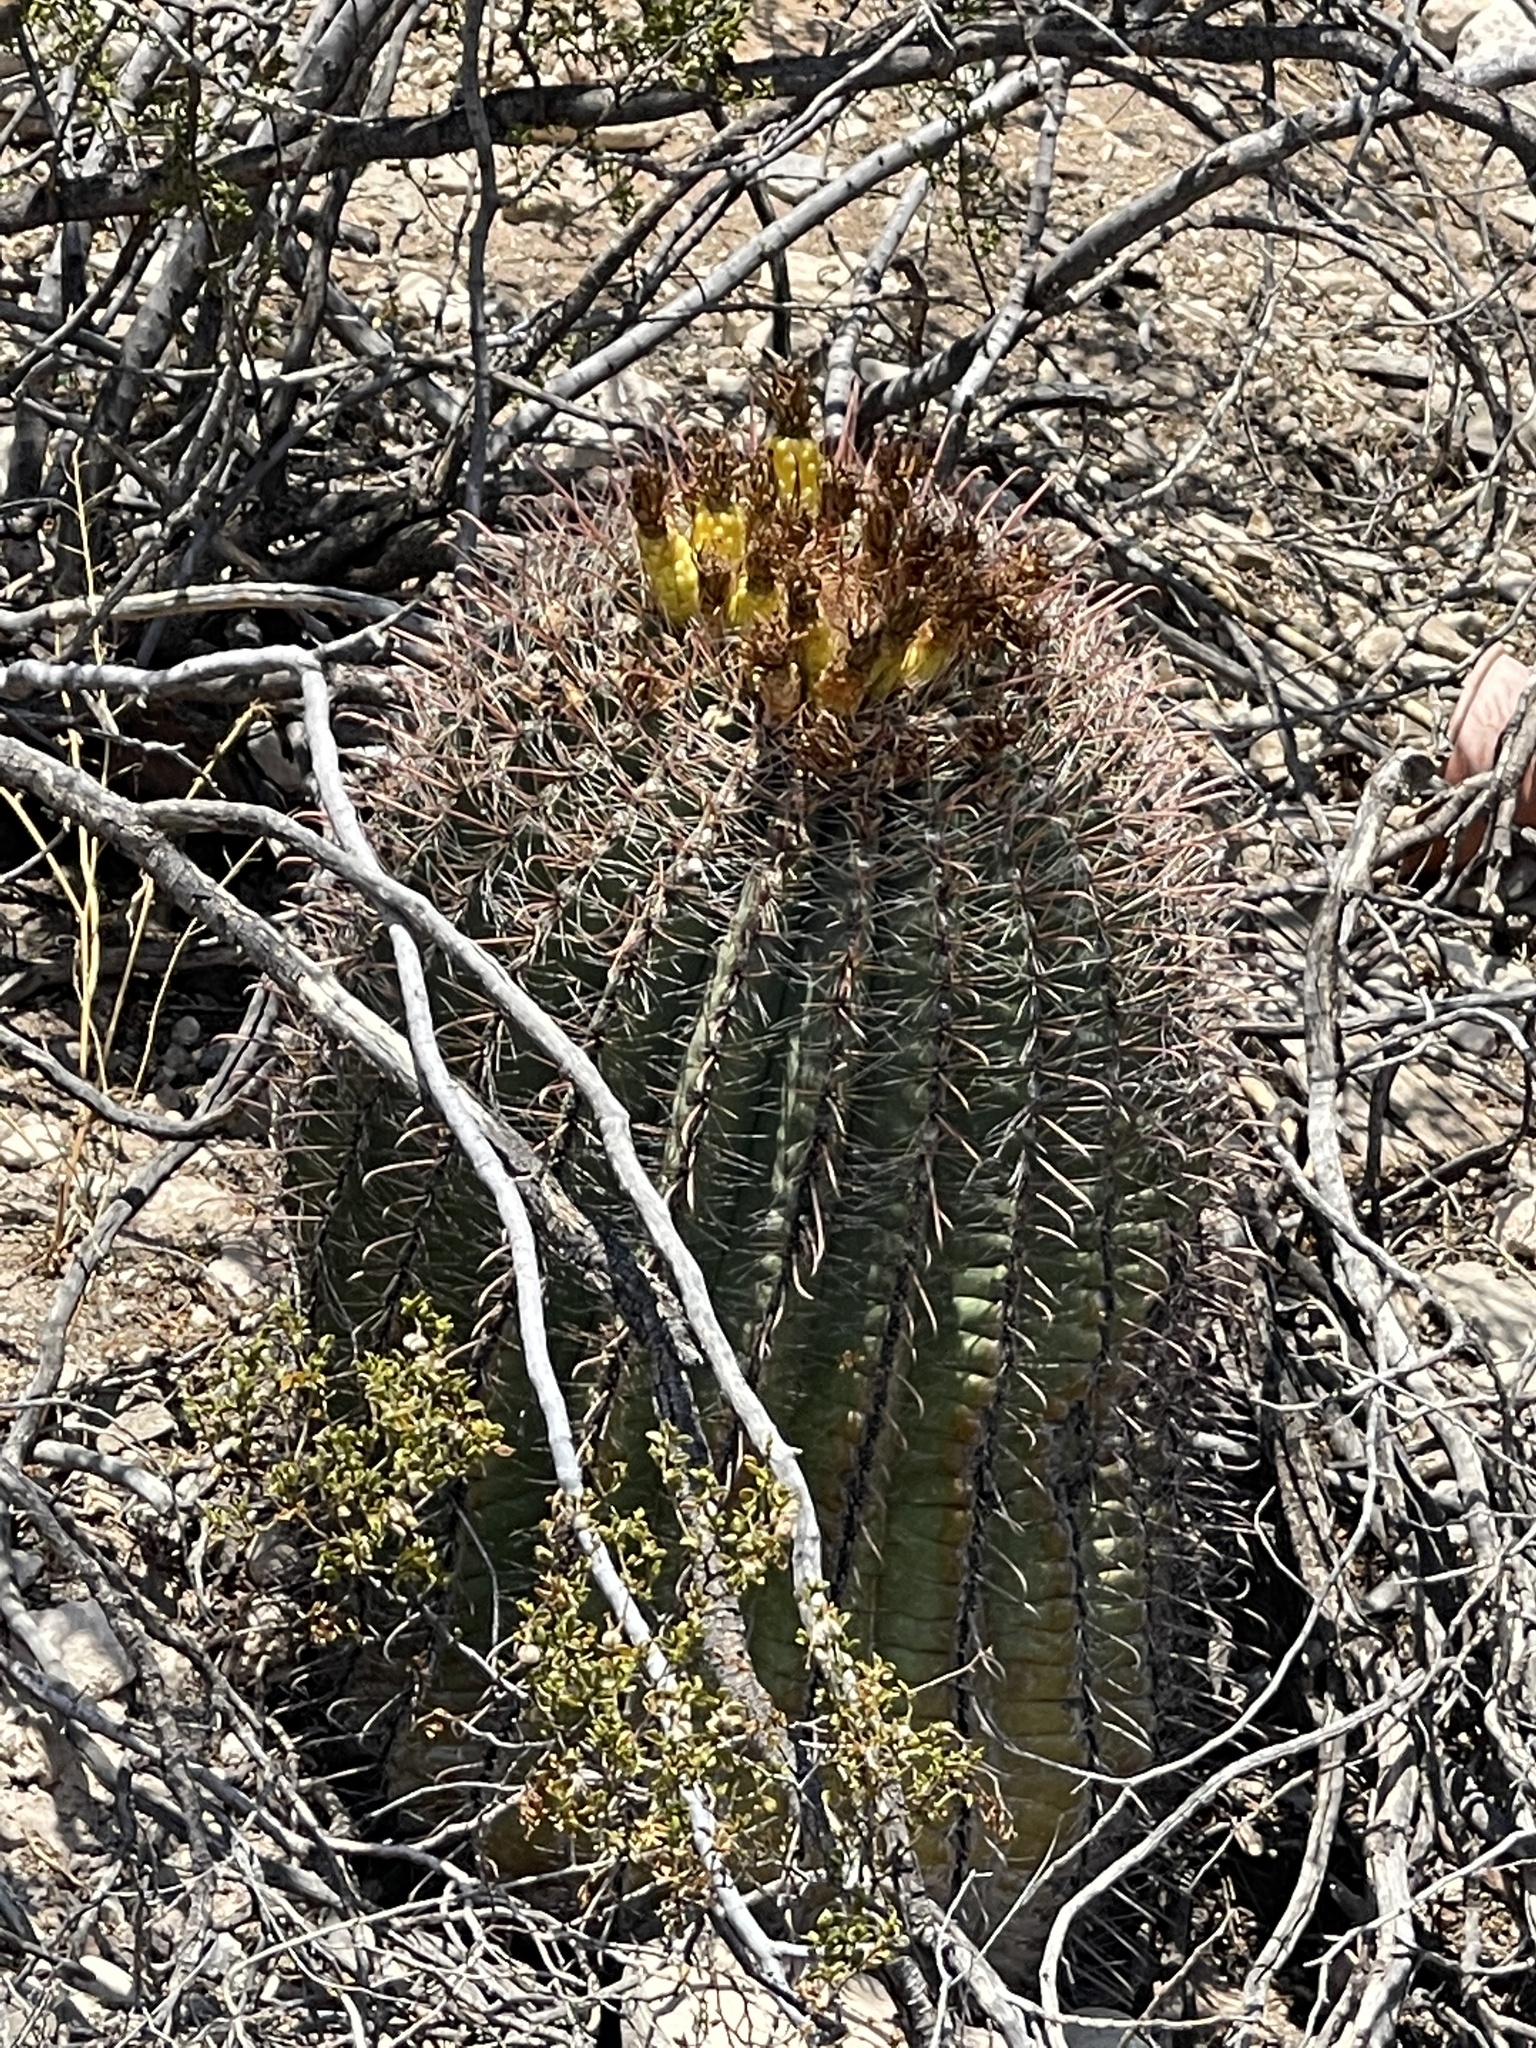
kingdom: Plantae
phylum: Tracheophyta
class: Magnoliopsida
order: Caryophyllales
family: Cactaceae
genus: Ferocactus
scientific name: Ferocactus wislizeni
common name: Candy barrel cactus
